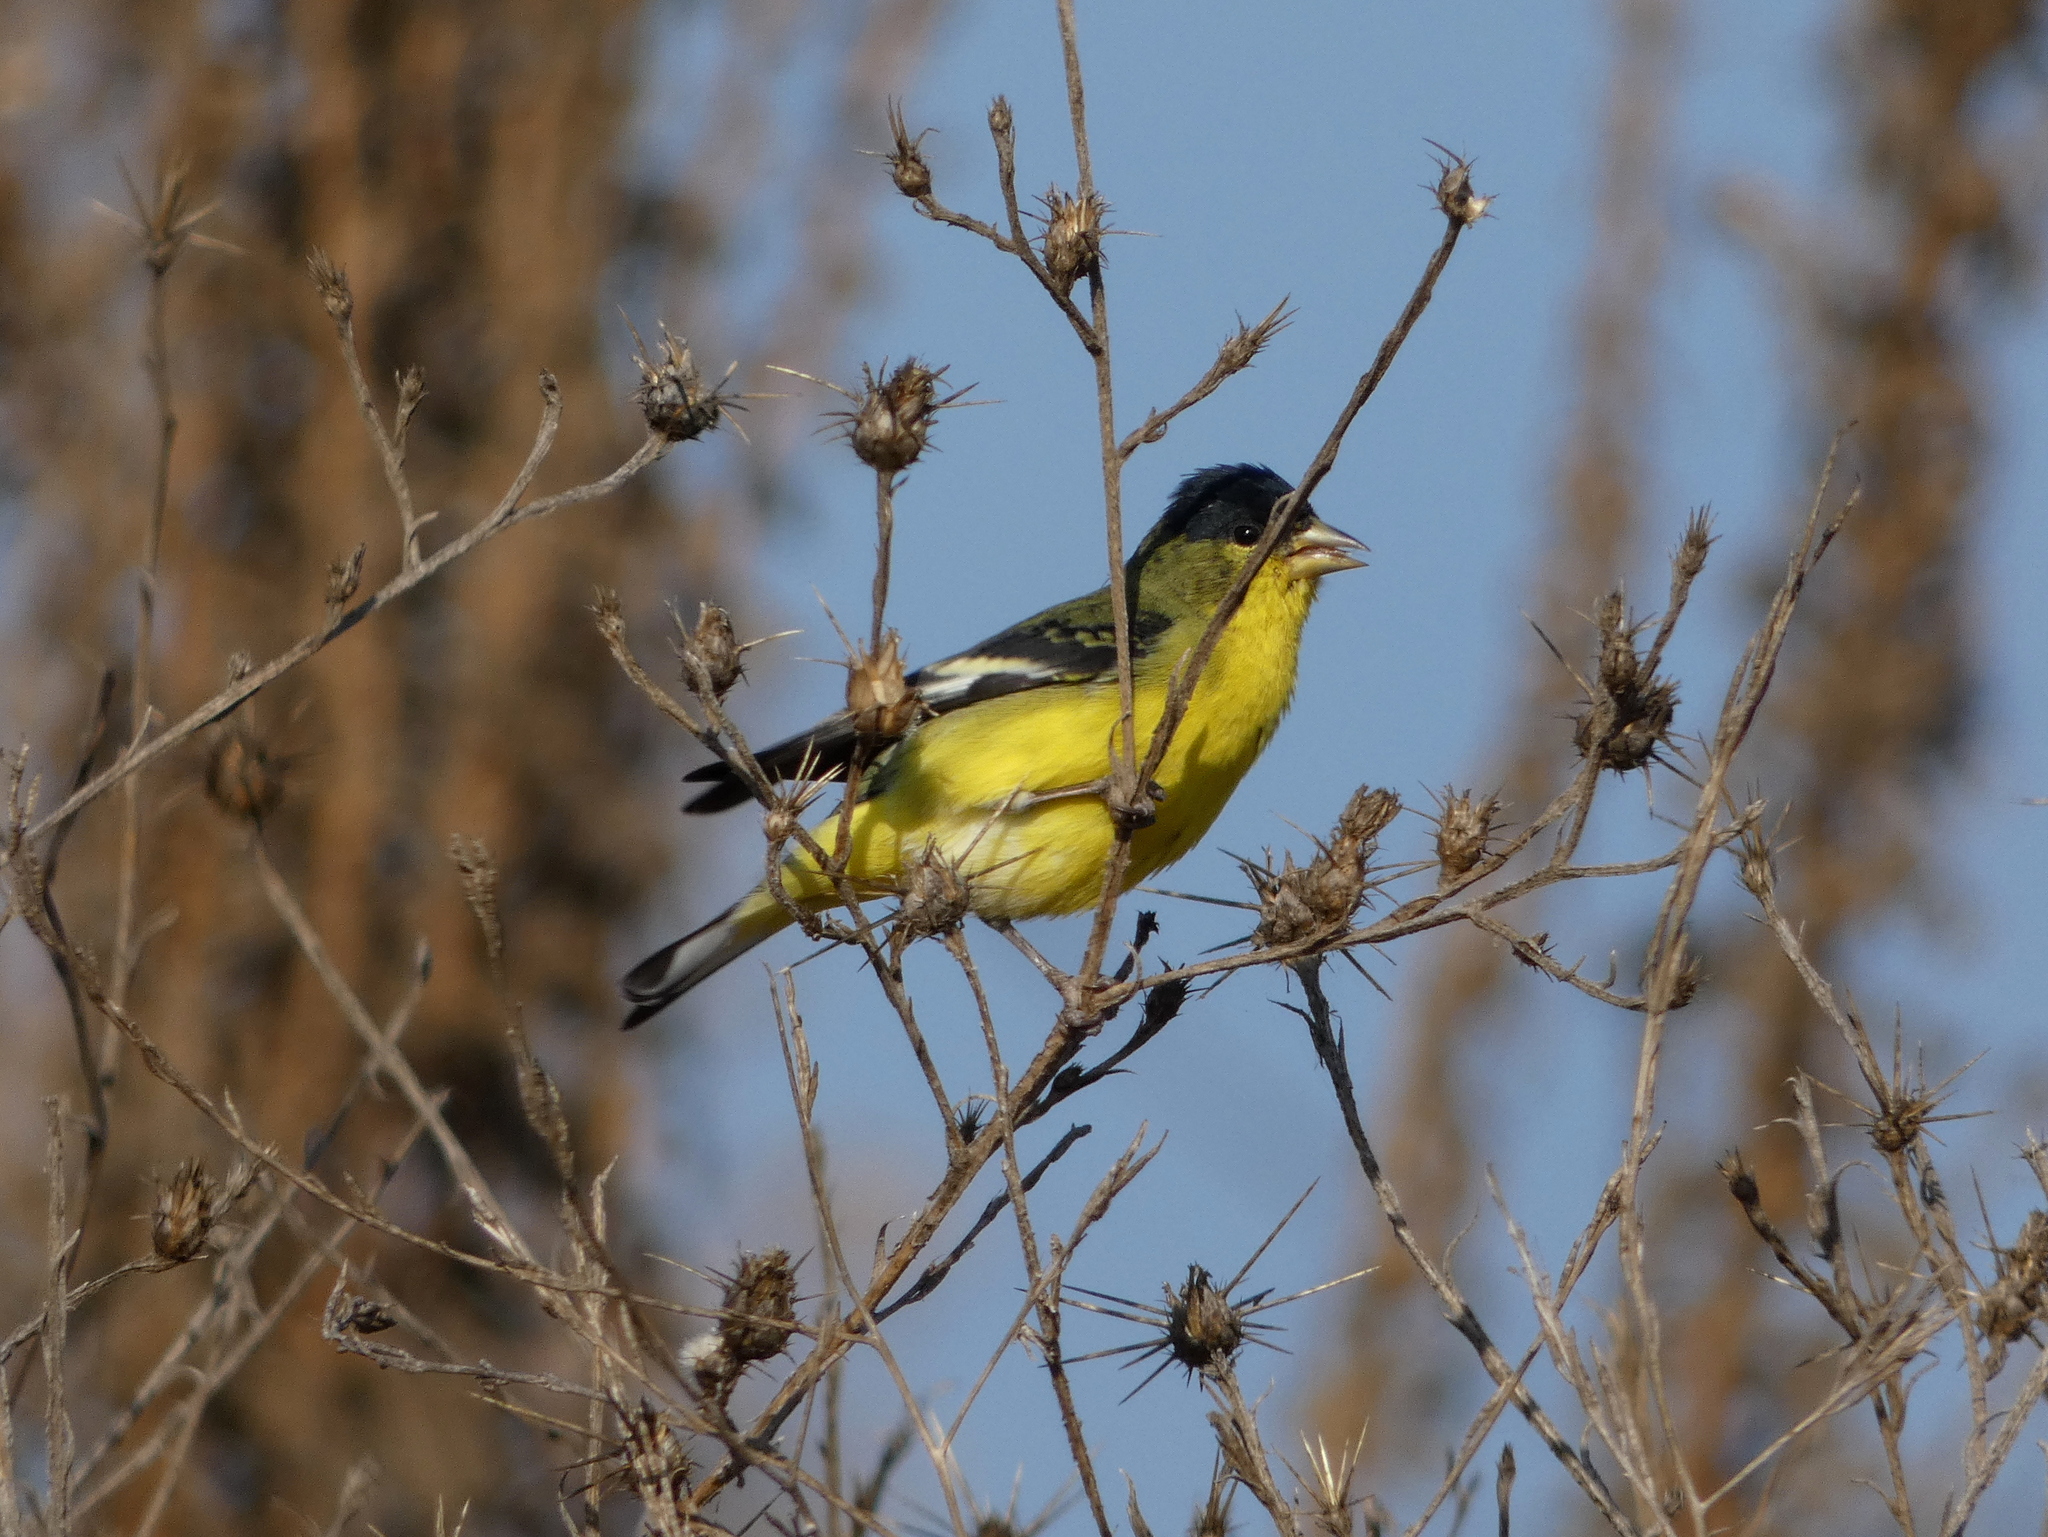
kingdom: Animalia
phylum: Chordata
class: Aves
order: Passeriformes
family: Fringillidae
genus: Spinus
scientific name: Spinus psaltria
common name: Lesser goldfinch
